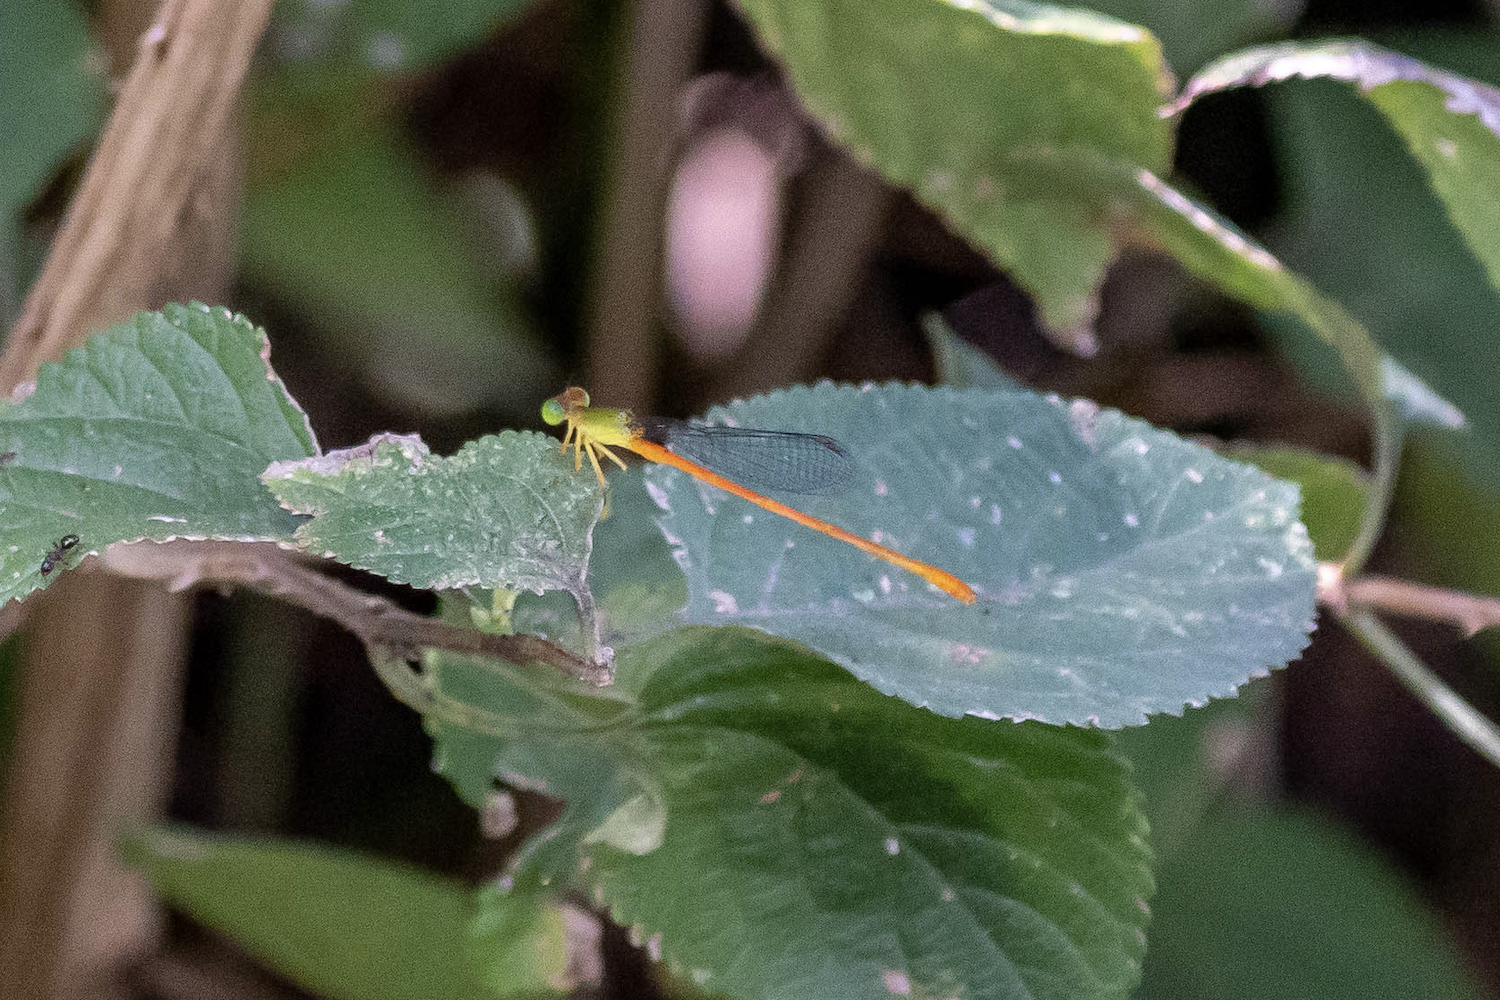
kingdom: Animalia
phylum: Arthropoda
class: Insecta
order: Odonata
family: Coenagrionidae
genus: Ceriagrion
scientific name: Ceriagrion auranticum
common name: Orange-tailed sprite
